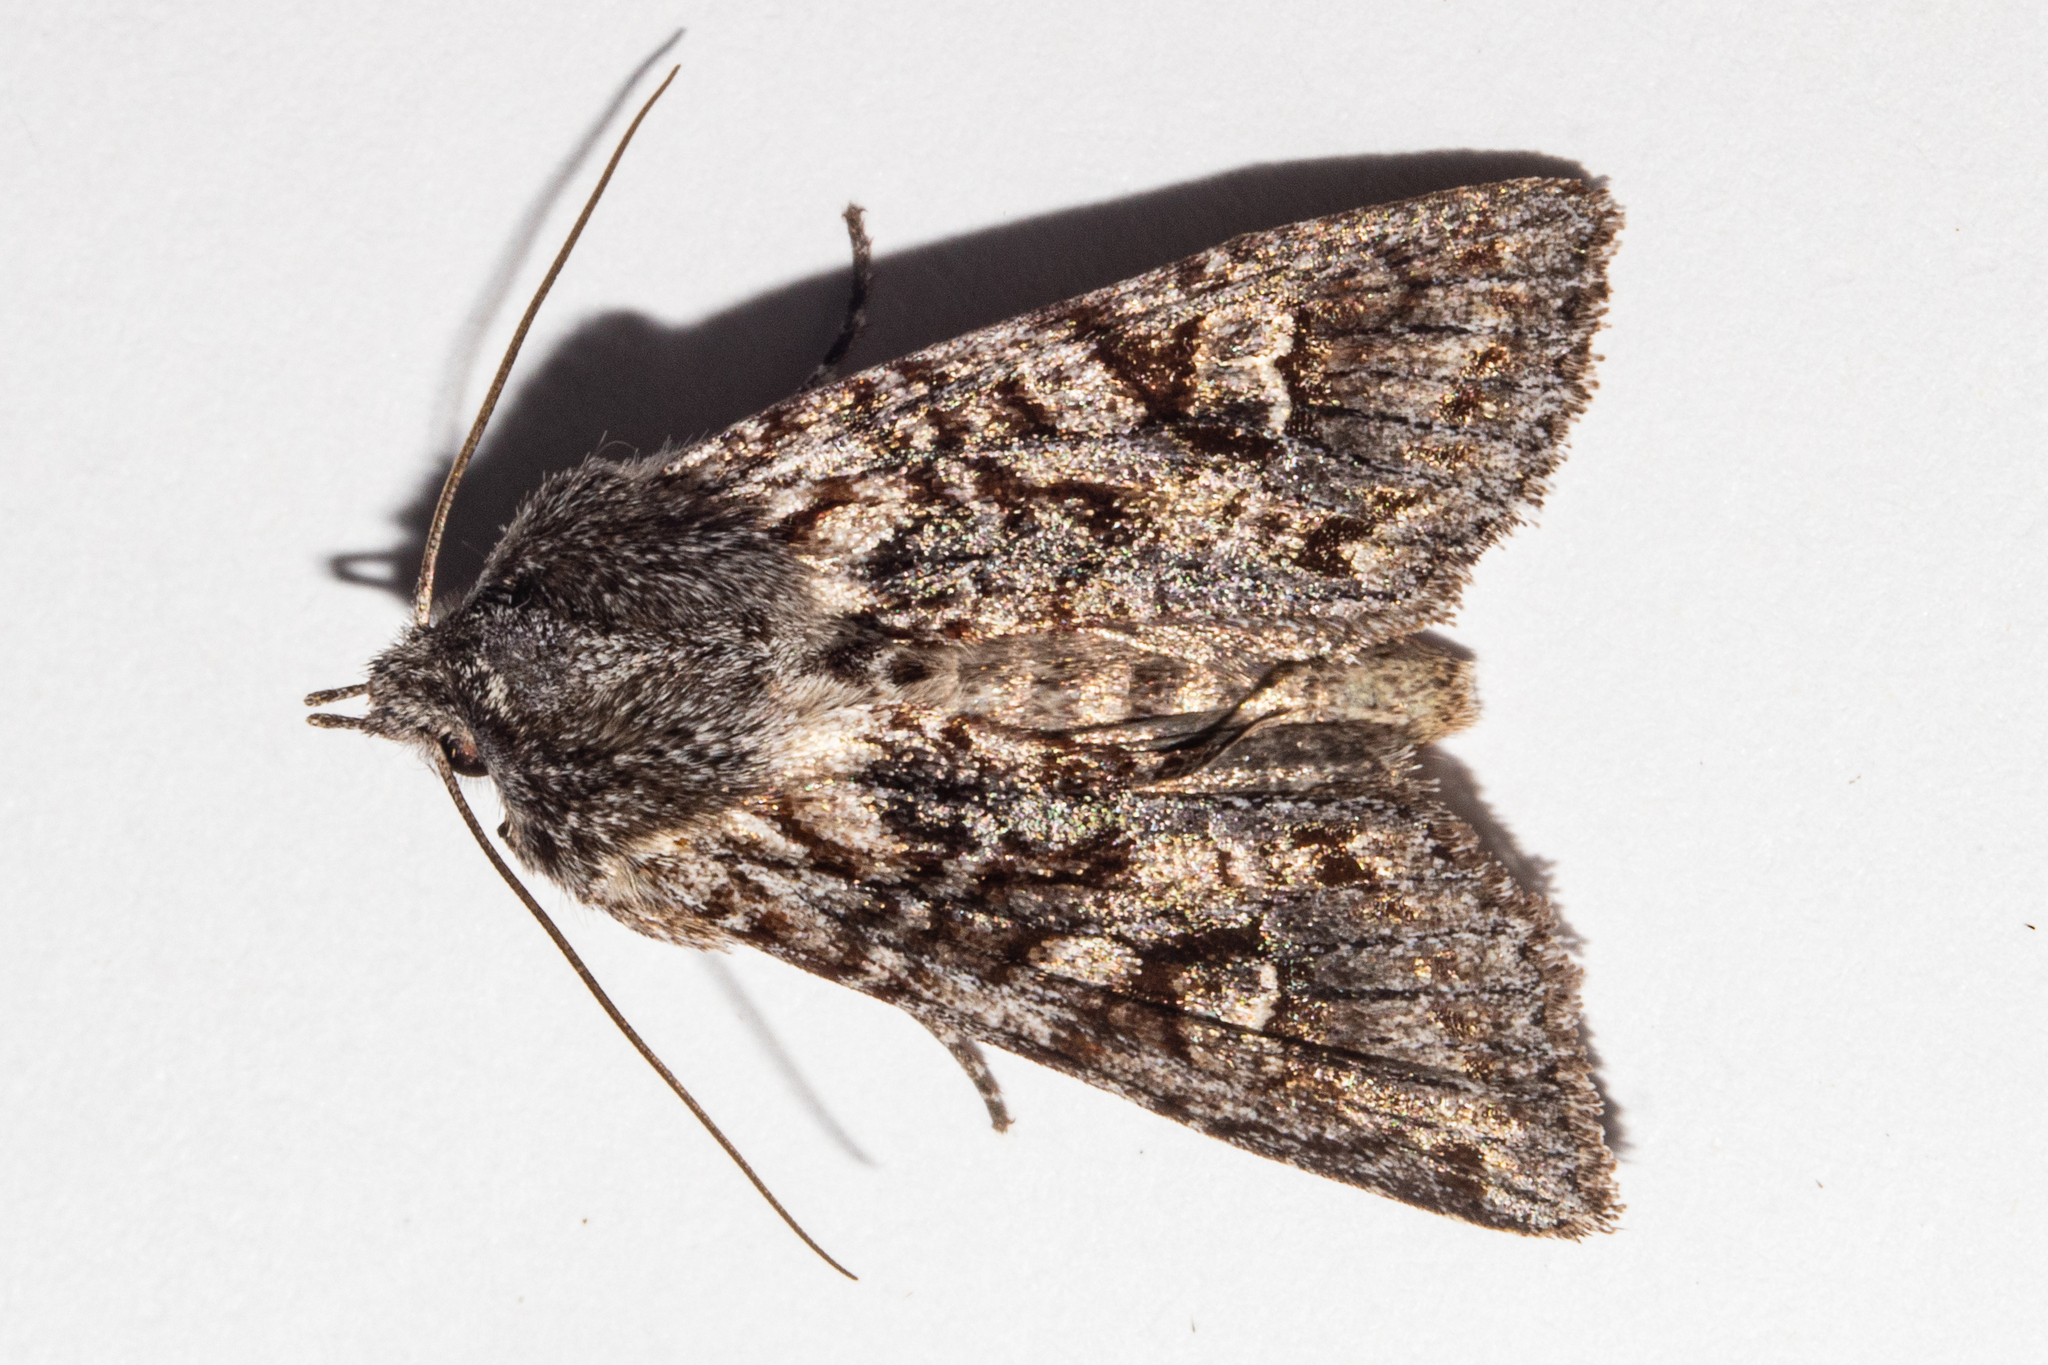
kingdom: Animalia
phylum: Arthropoda
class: Insecta
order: Lepidoptera
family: Noctuidae
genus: Physetica
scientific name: Physetica longstaffii
